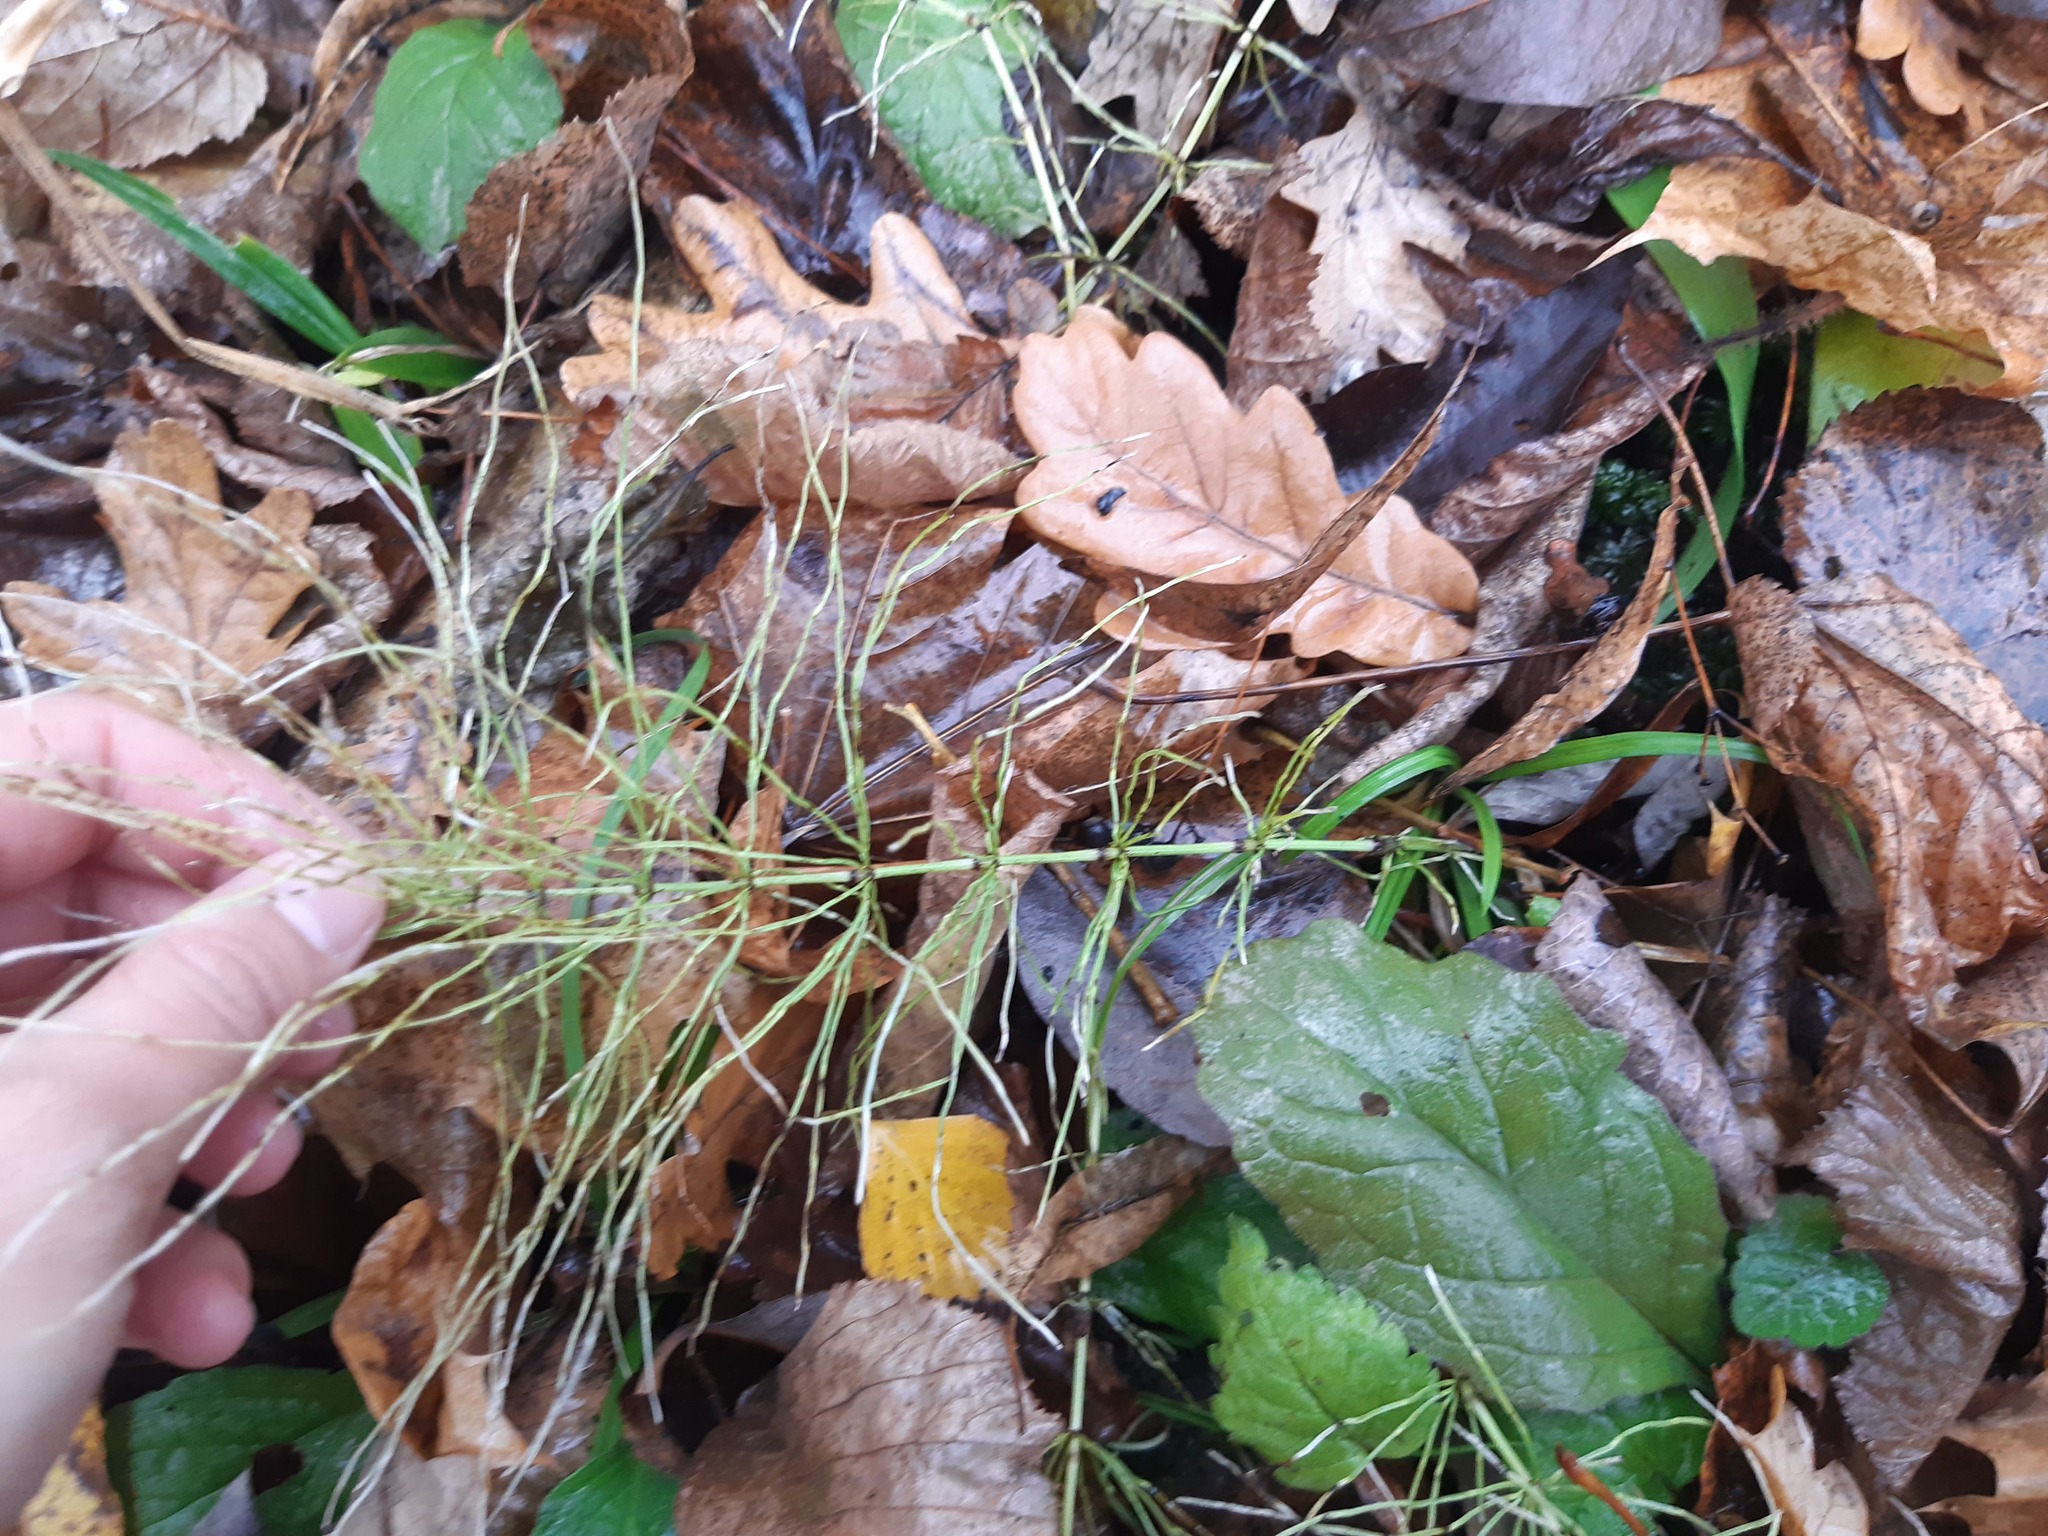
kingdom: Plantae
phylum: Tracheophyta
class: Polypodiopsida
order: Equisetales
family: Equisetaceae
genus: Equisetum
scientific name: Equisetum pratense
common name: Meadow horsetail
